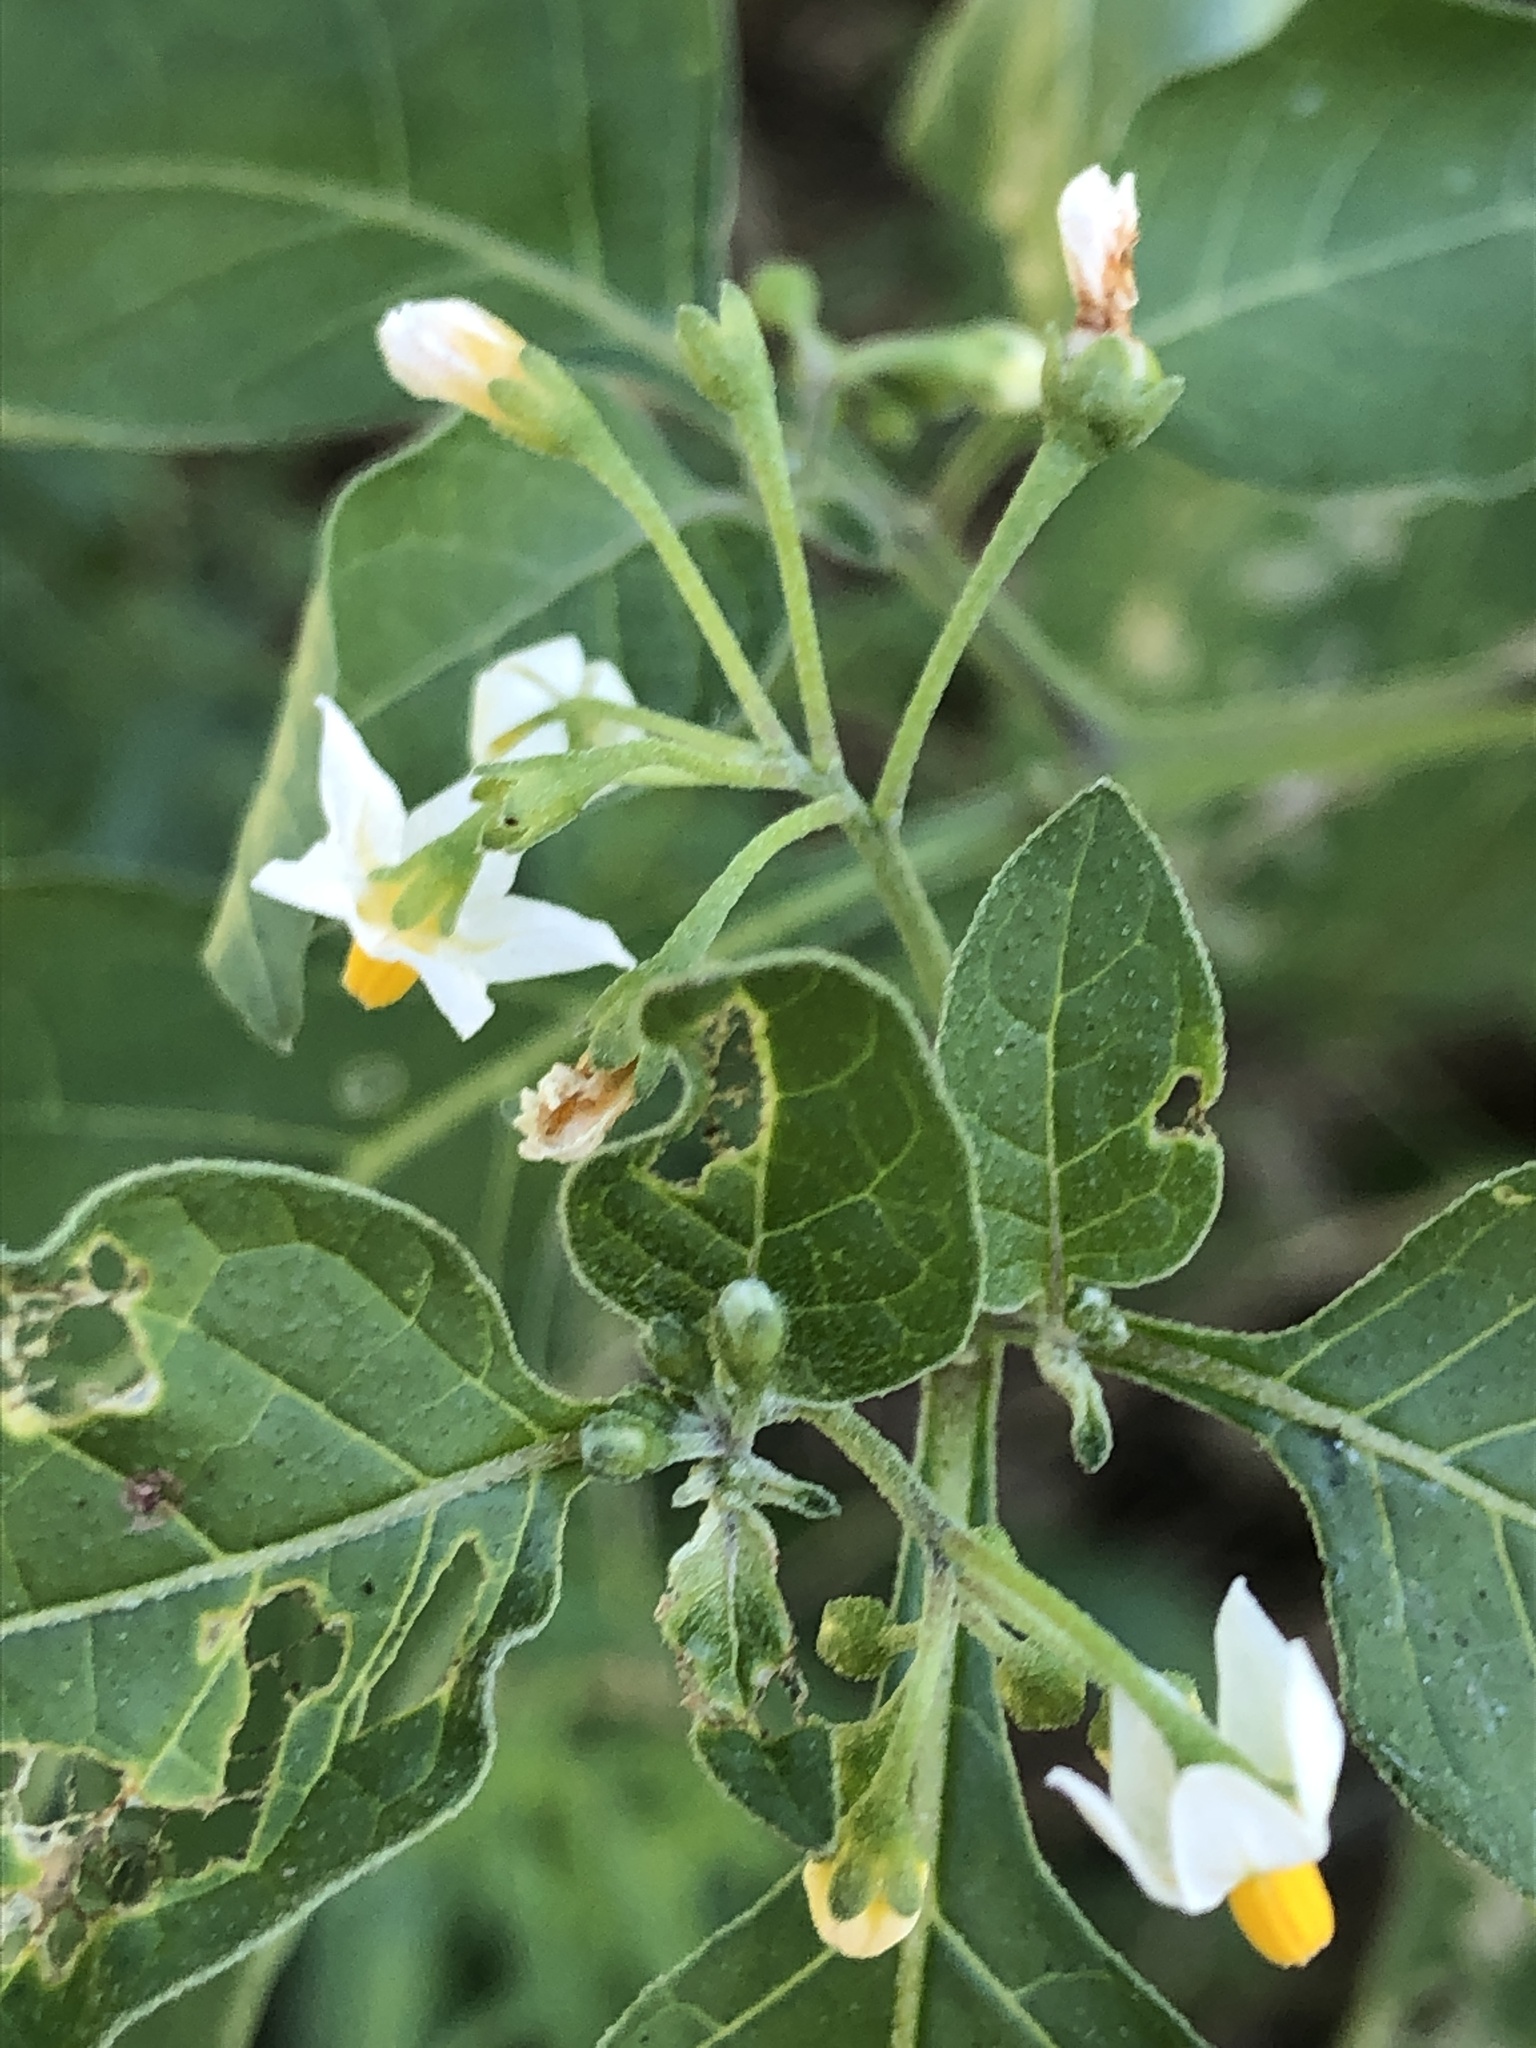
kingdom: Plantae
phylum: Tracheophyta
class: Magnoliopsida
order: Solanales
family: Solanaceae
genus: Solanum
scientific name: Solanum nigrum
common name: Black nightshade
